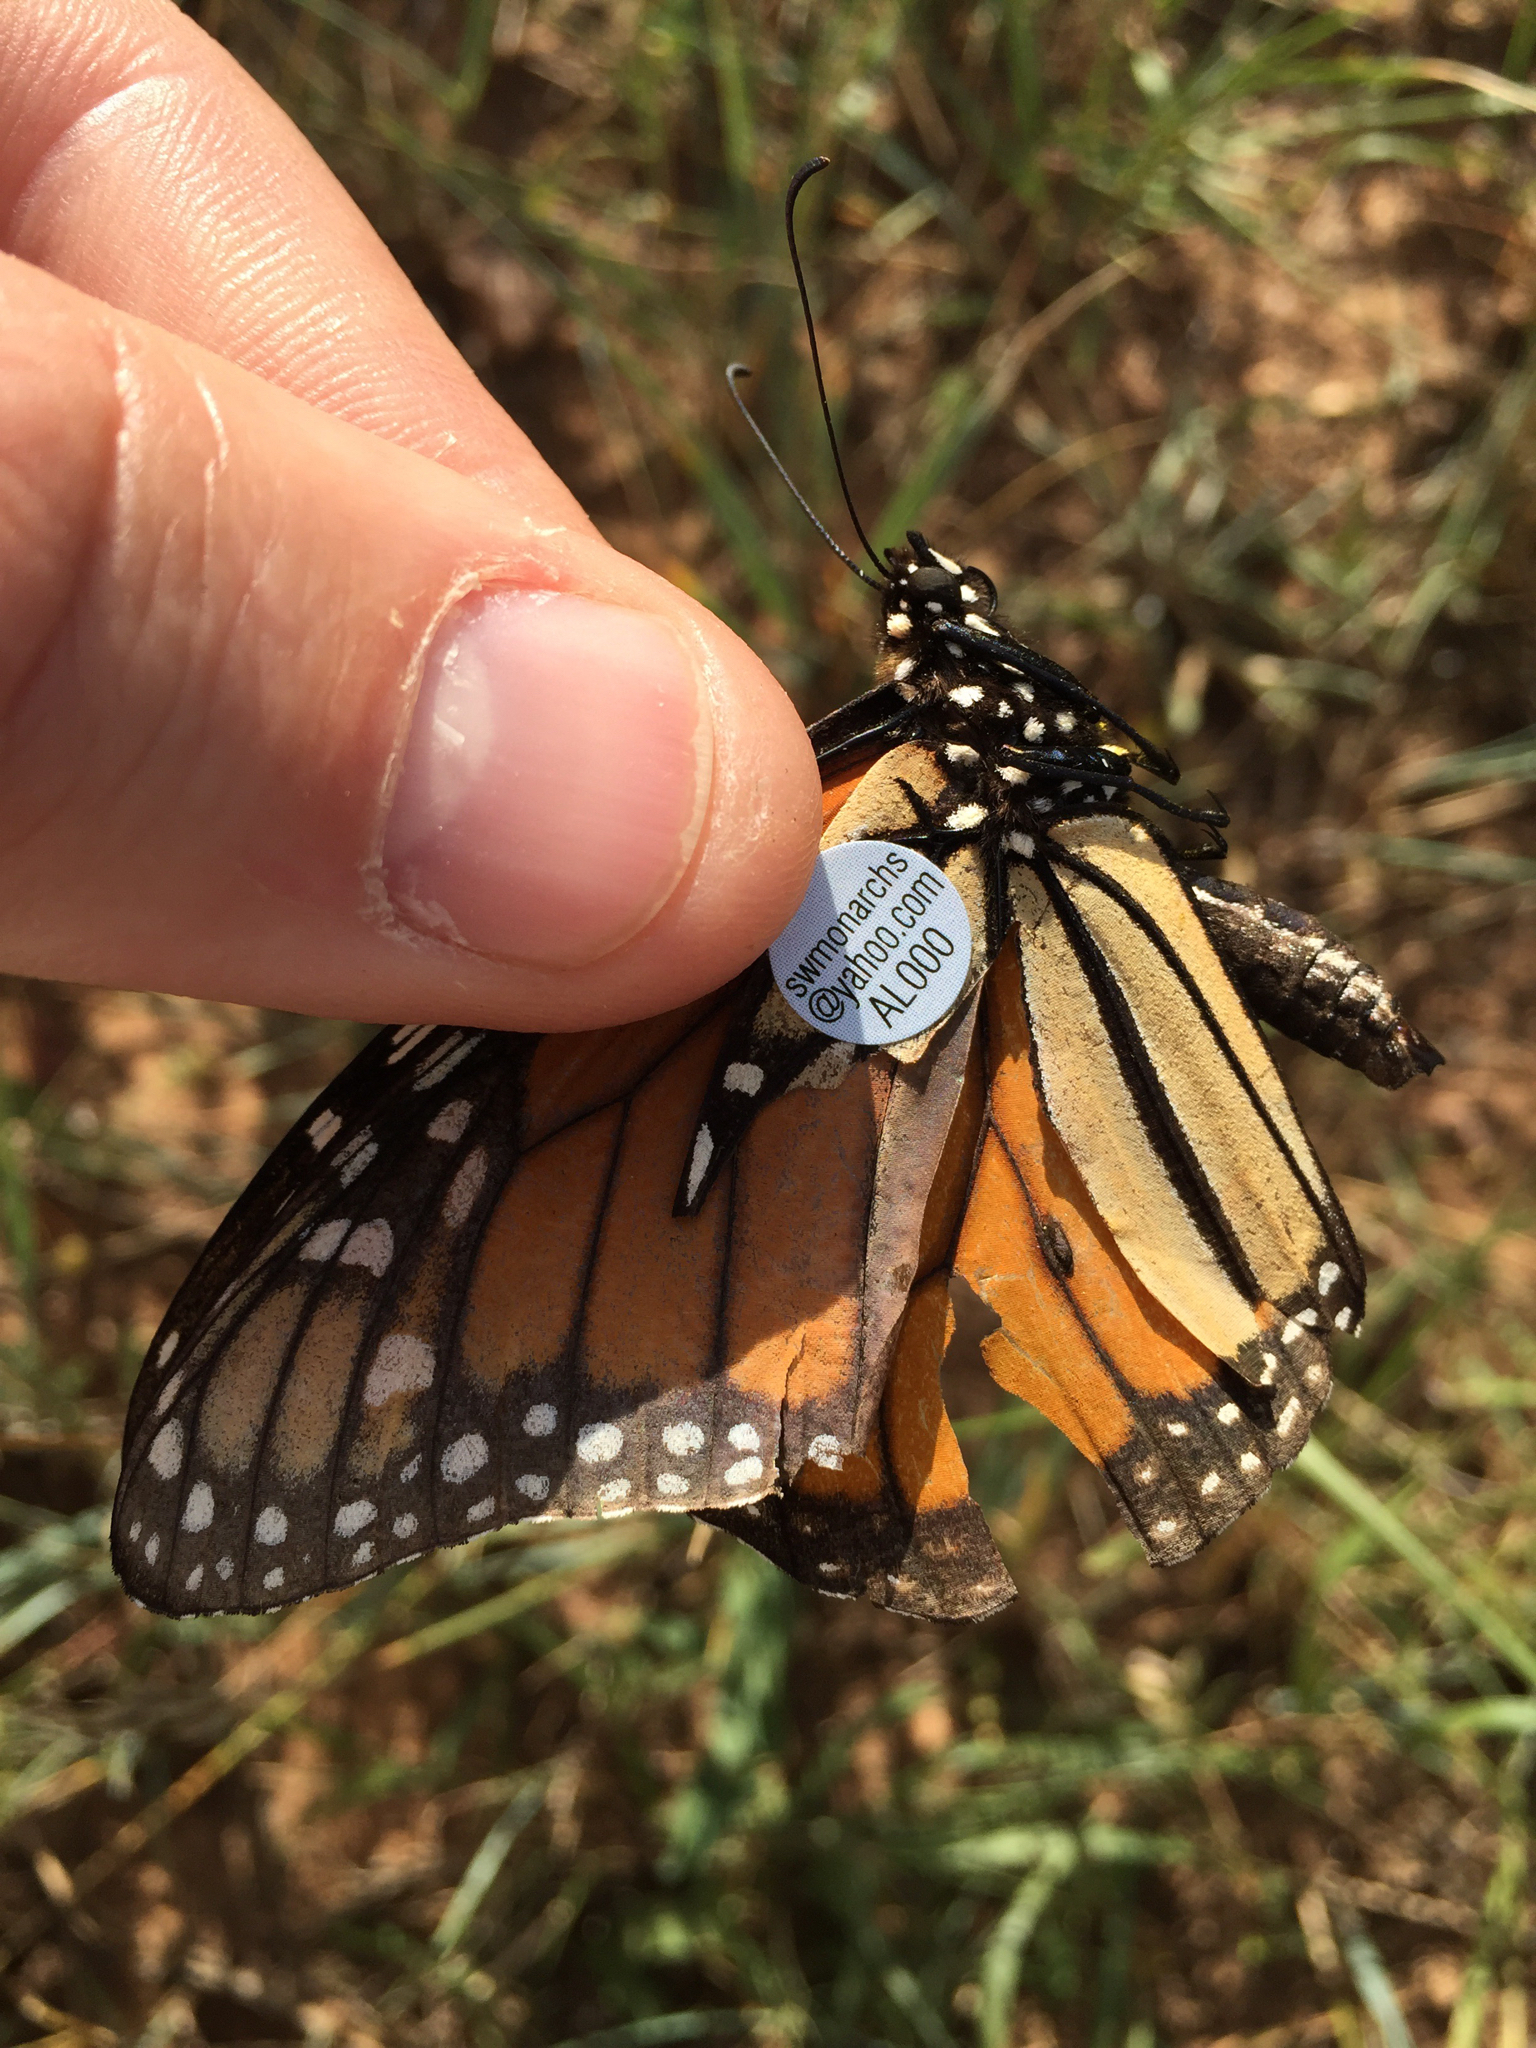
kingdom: Animalia
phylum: Arthropoda
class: Insecta
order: Lepidoptera
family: Nymphalidae
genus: Danaus
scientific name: Danaus plexippus
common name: Monarch
